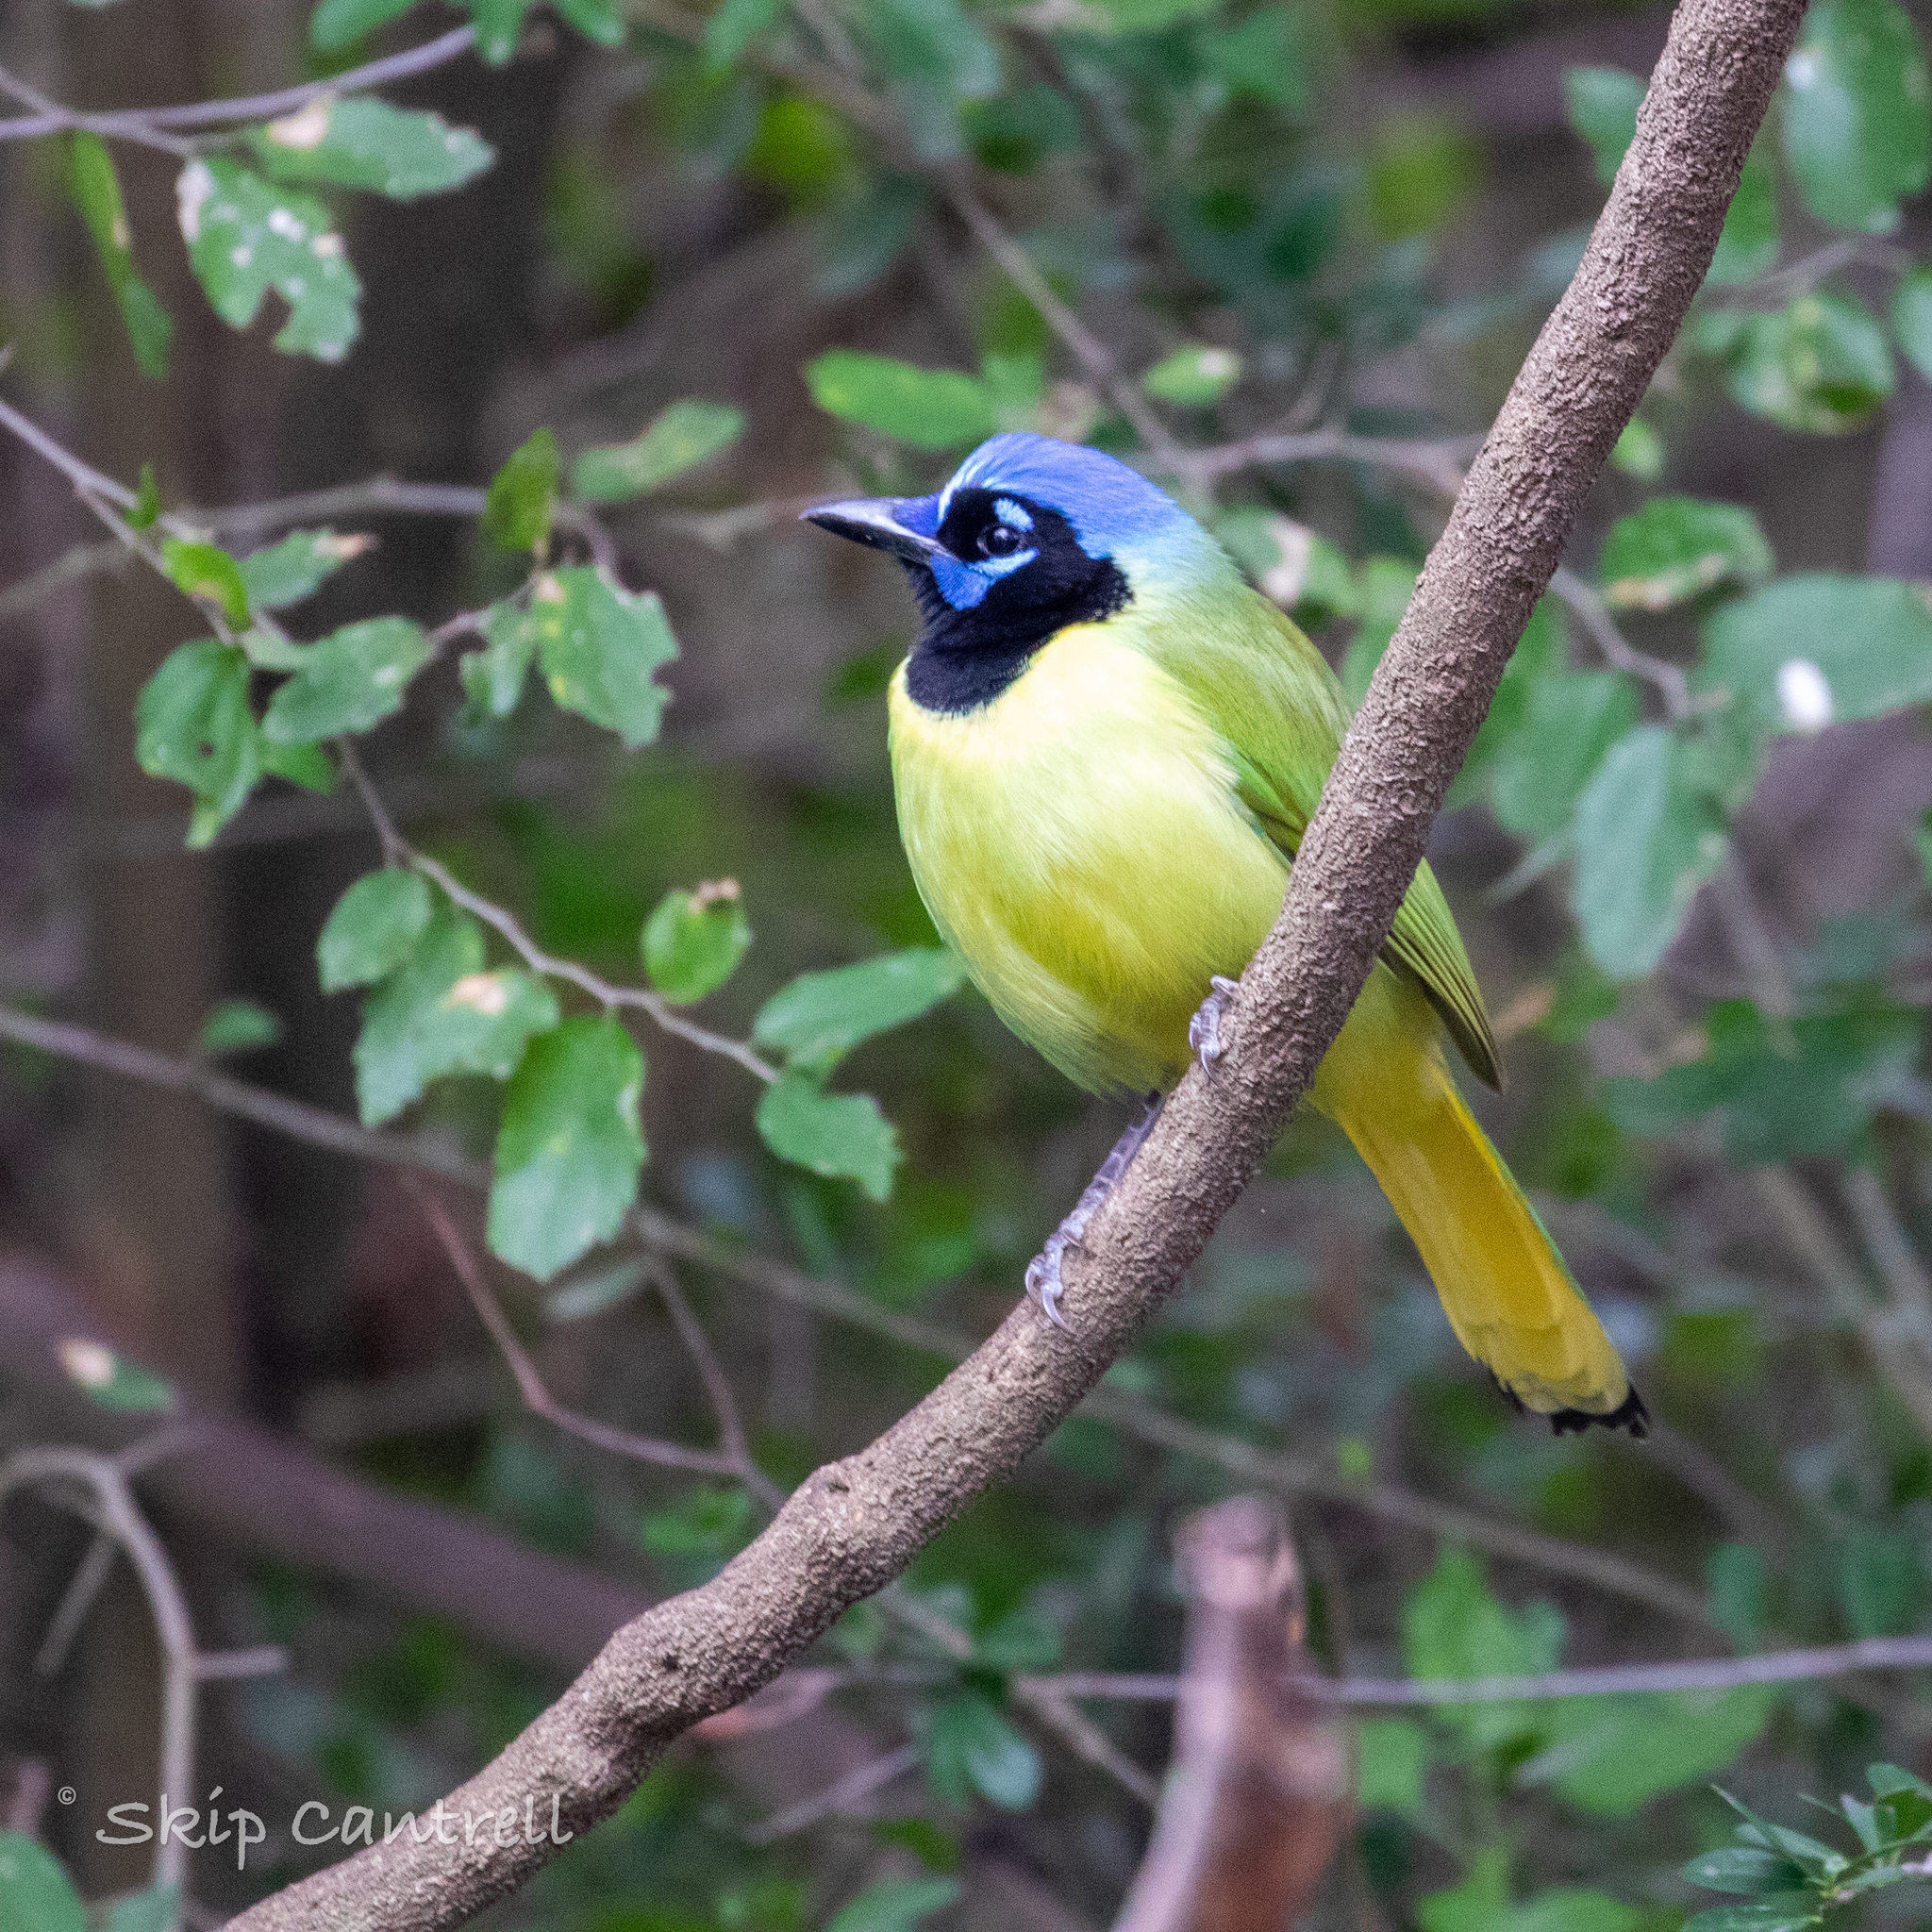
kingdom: Animalia
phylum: Chordata
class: Aves
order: Passeriformes
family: Corvidae
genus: Cyanocorax
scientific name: Cyanocorax yncas
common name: Green jay
